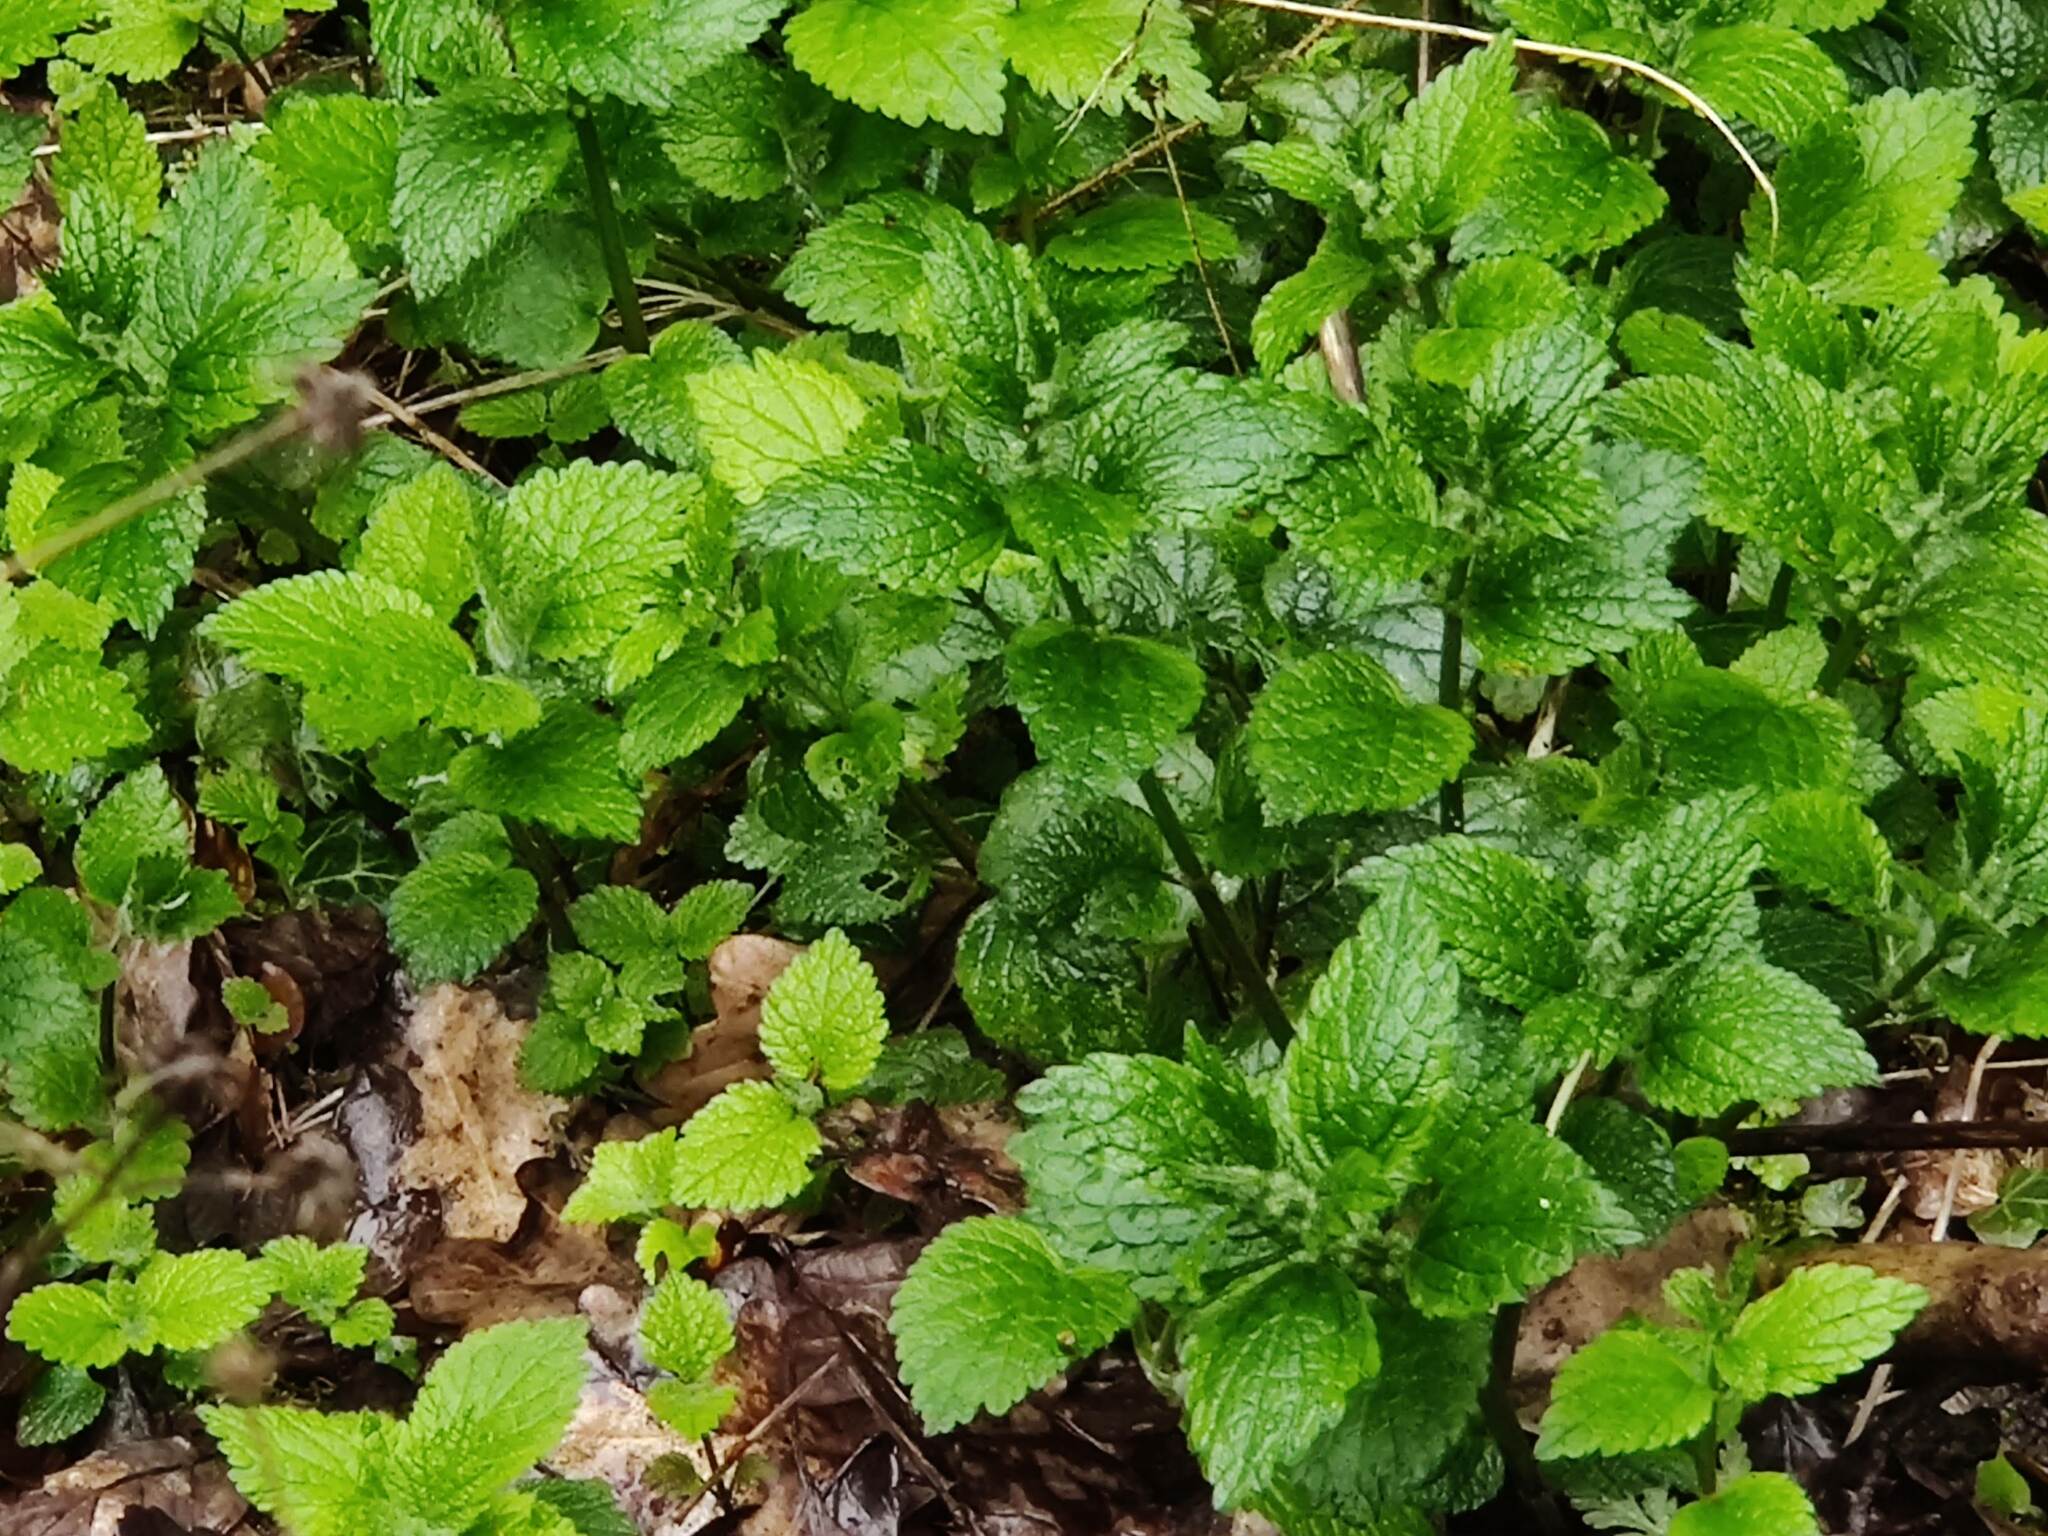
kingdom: Plantae
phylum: Tracheophyta
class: Magnoliopsida
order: Lamiales
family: Lamiaceae
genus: Lamium
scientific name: Lamium galeobdolon
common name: Yellow archangel
